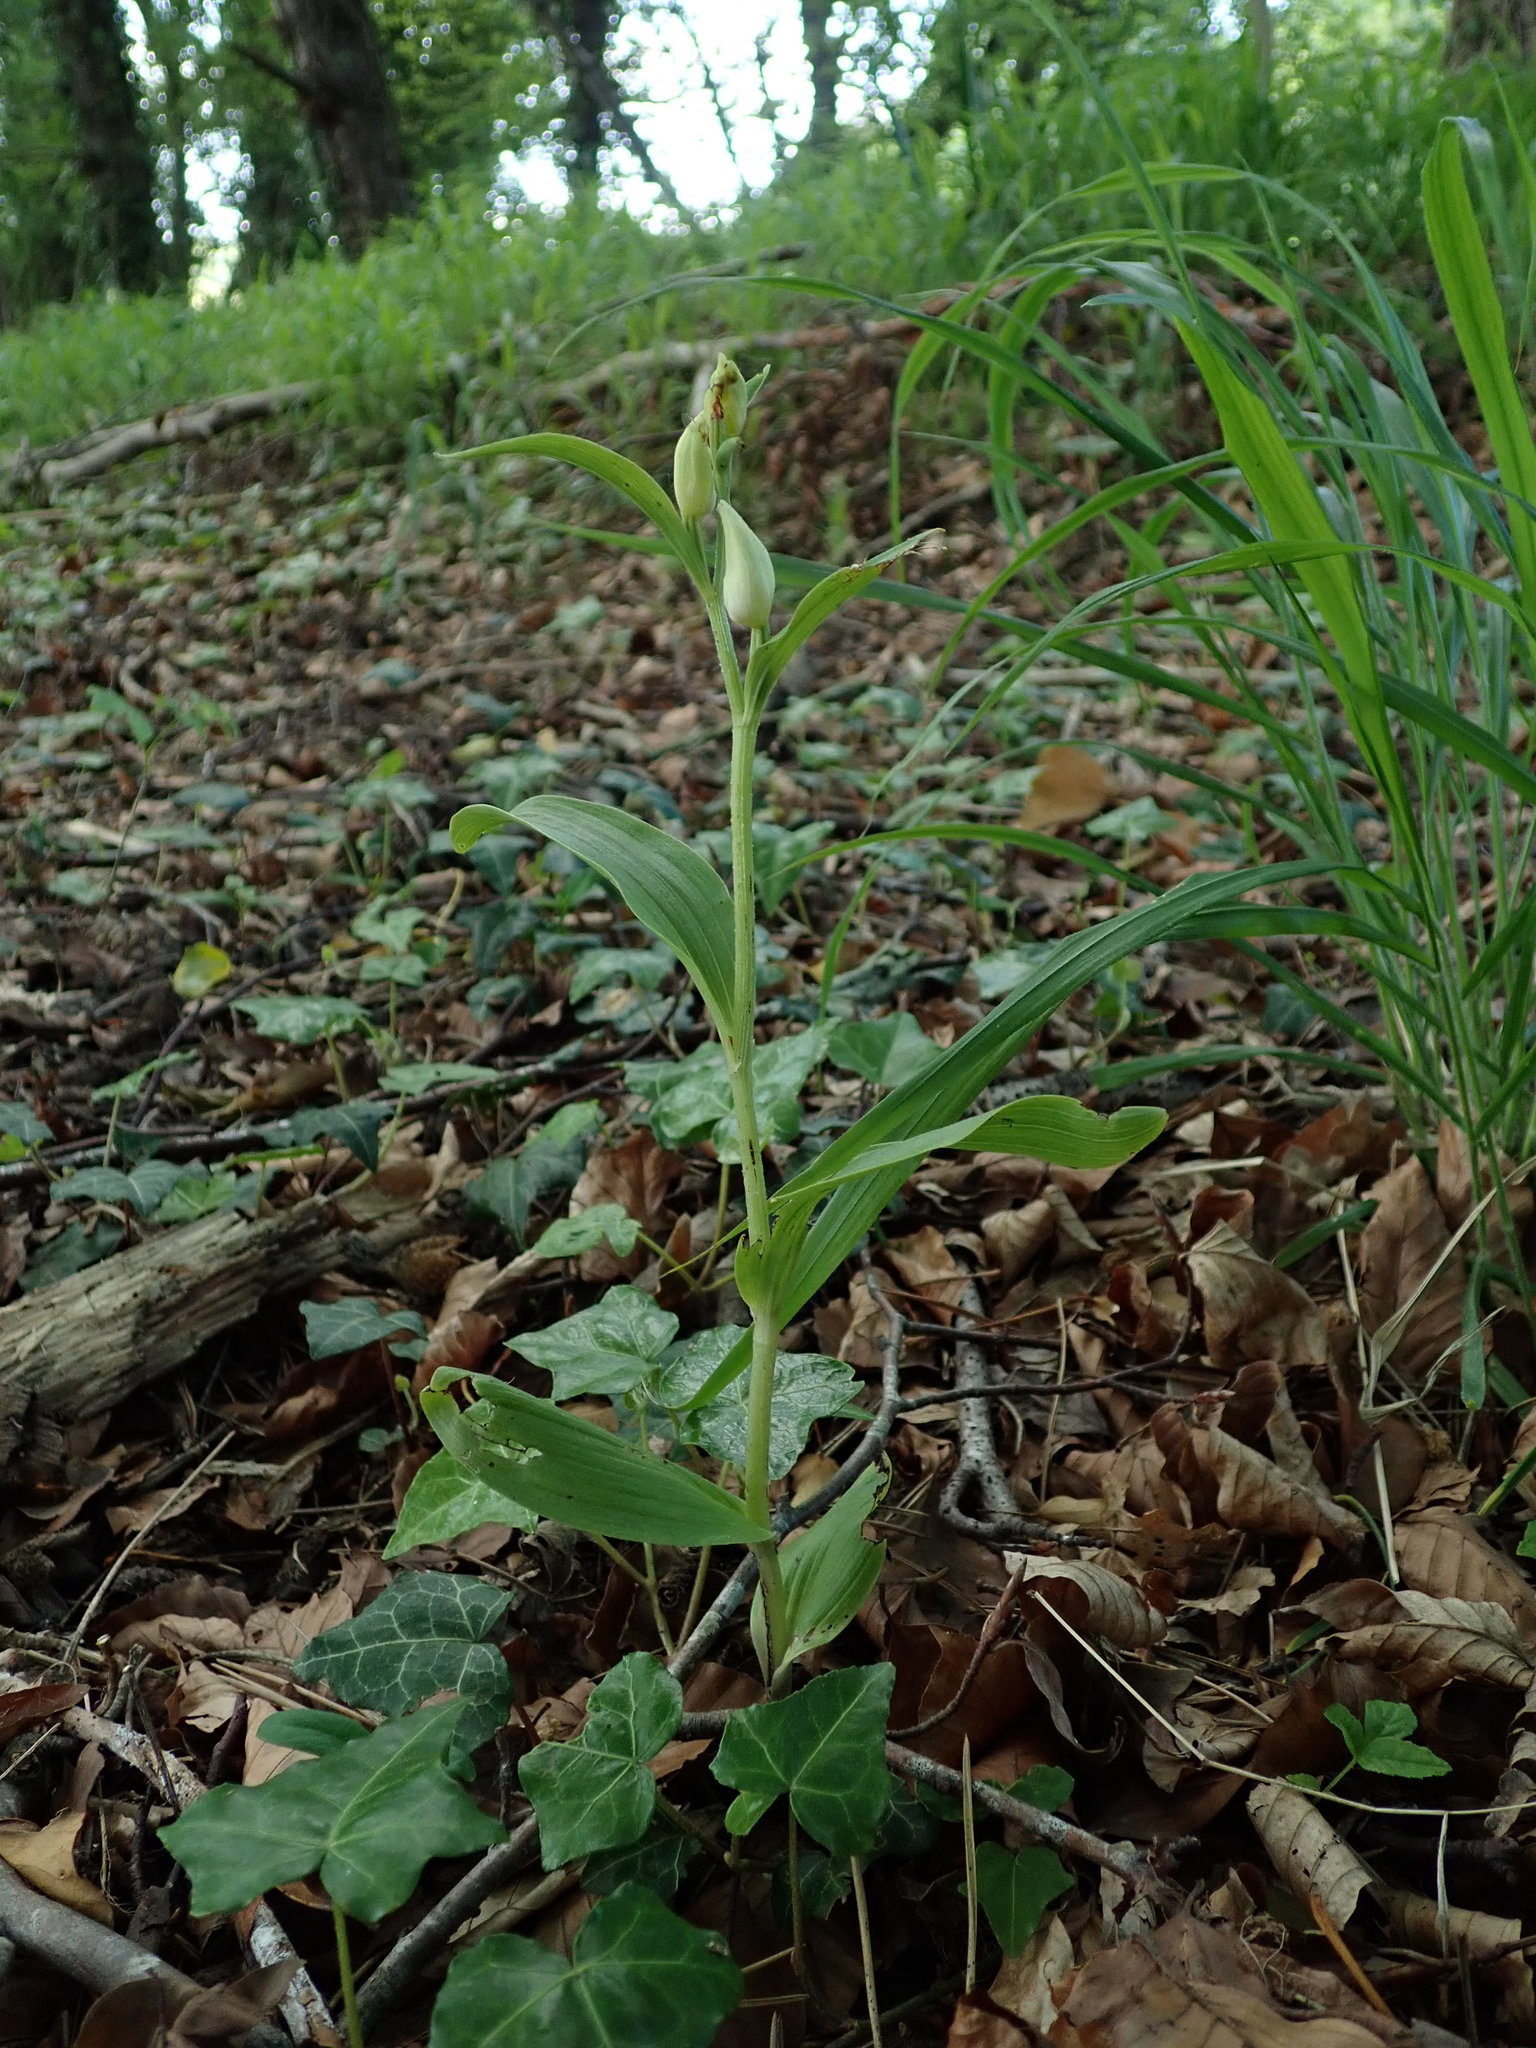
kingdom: Plantae
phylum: Tracheophyta
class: Liliopsida
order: Asparagales
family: Orchidaceae
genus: Cephalanthera
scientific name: Cephalanthera damasonium
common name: White helleborine
